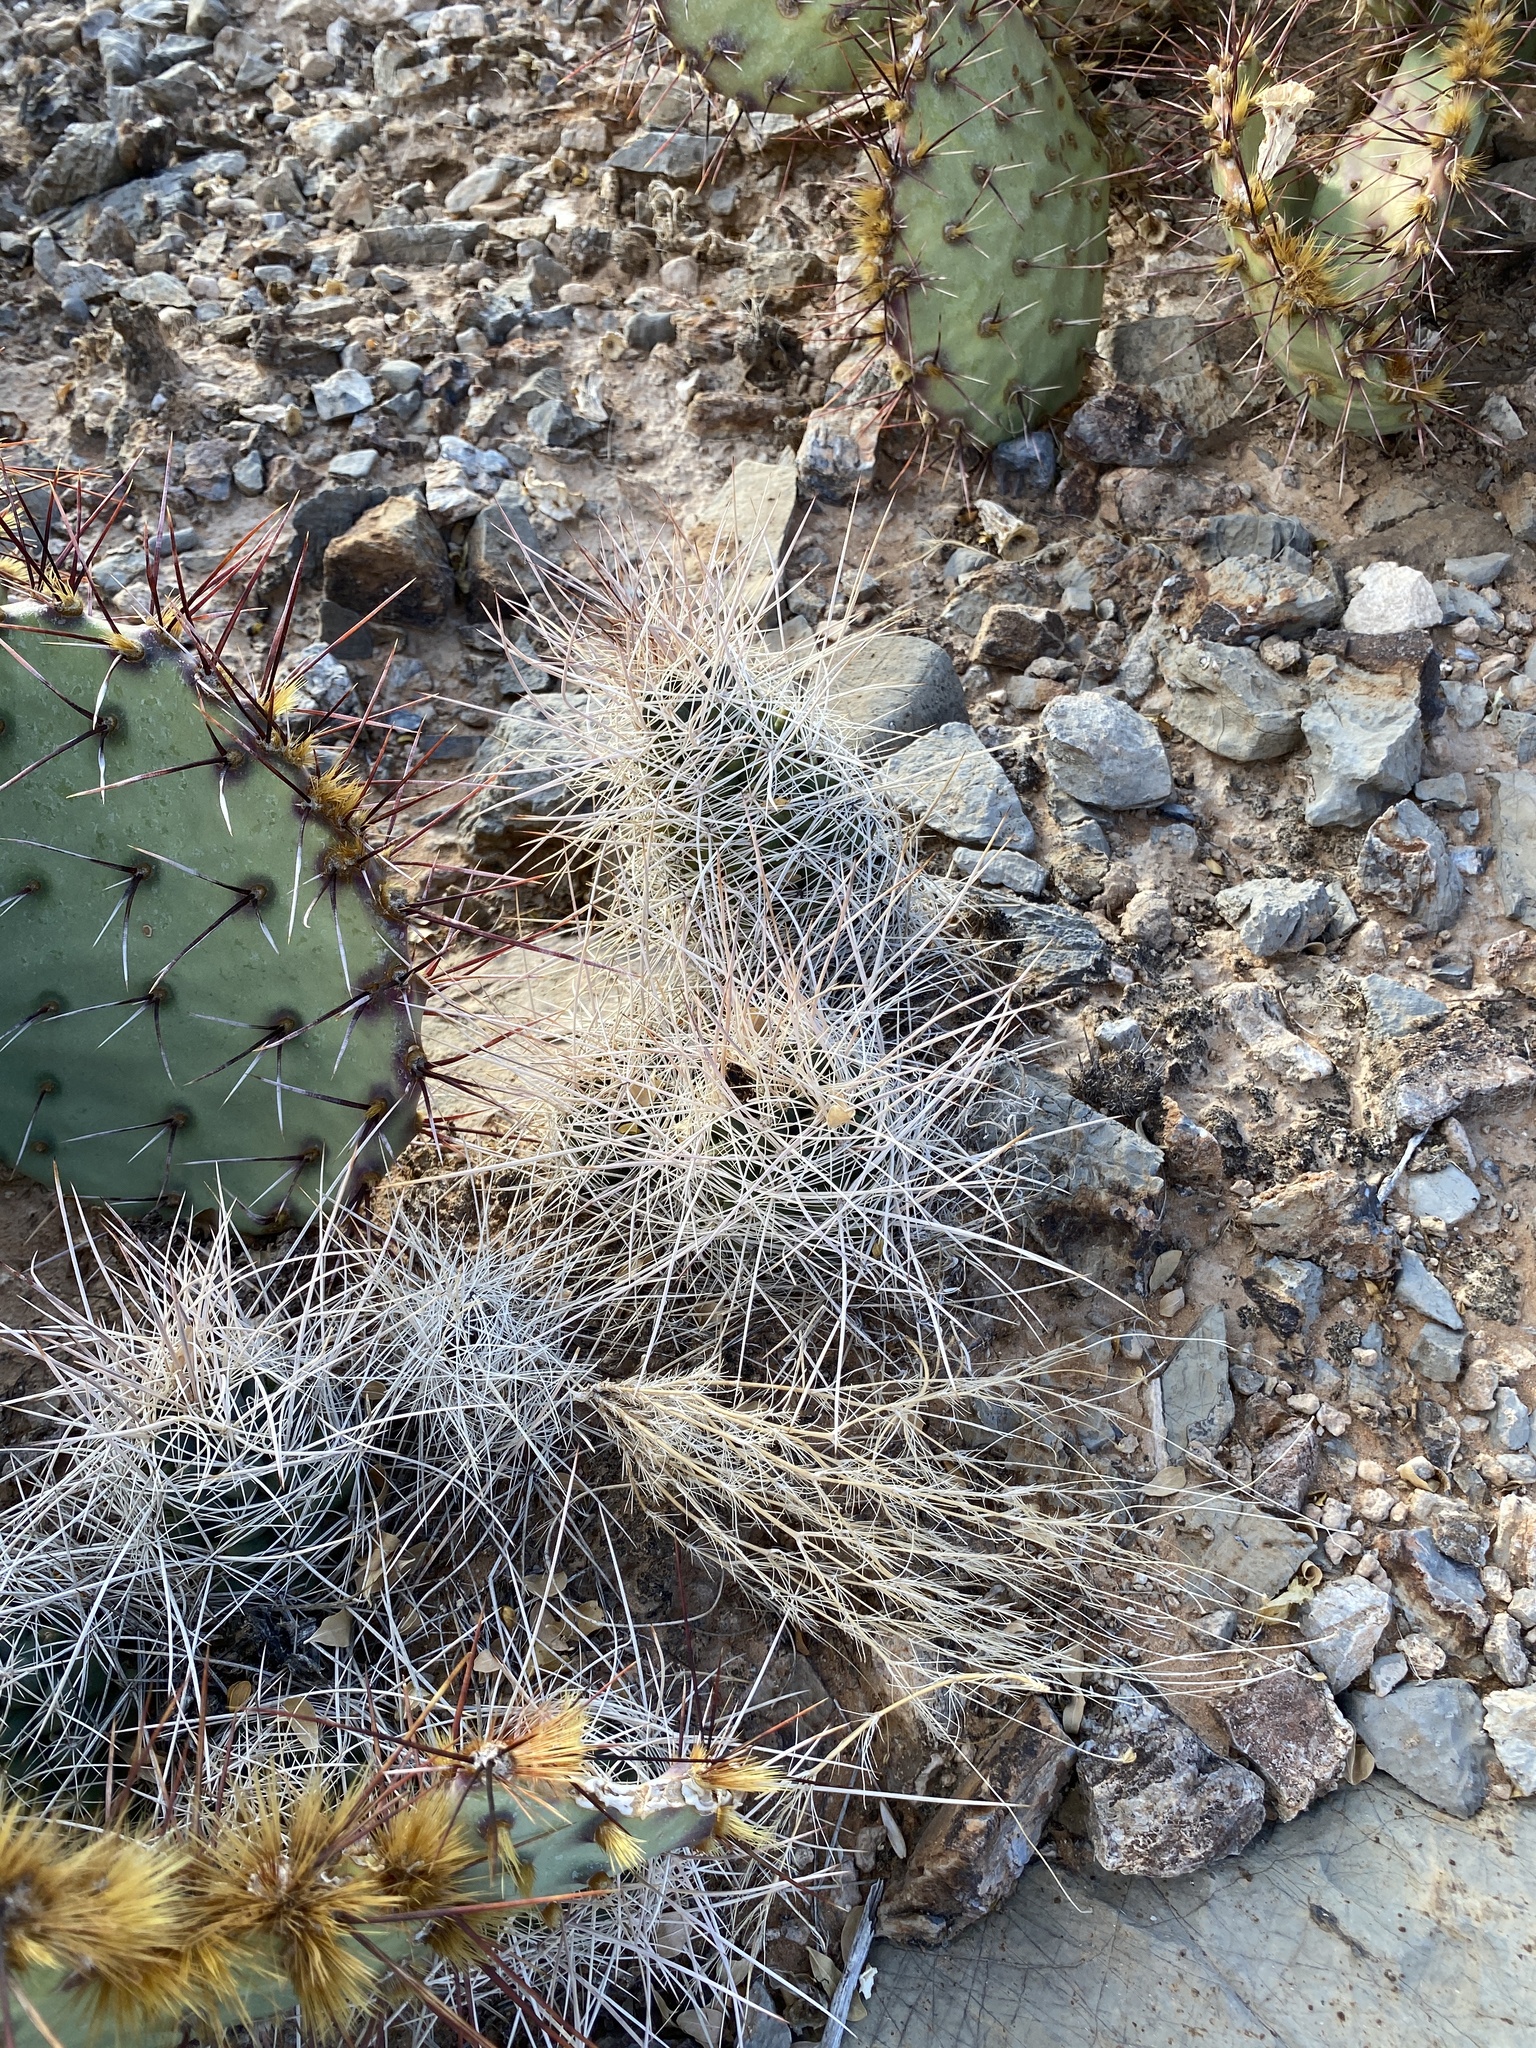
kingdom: Plantae
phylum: Tracheophyta
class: Magnoliopsida
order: Caryophyllales
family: Cactaceae
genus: Coryphantha
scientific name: Coryphantha macromeris
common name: Nipple beehive cactus
